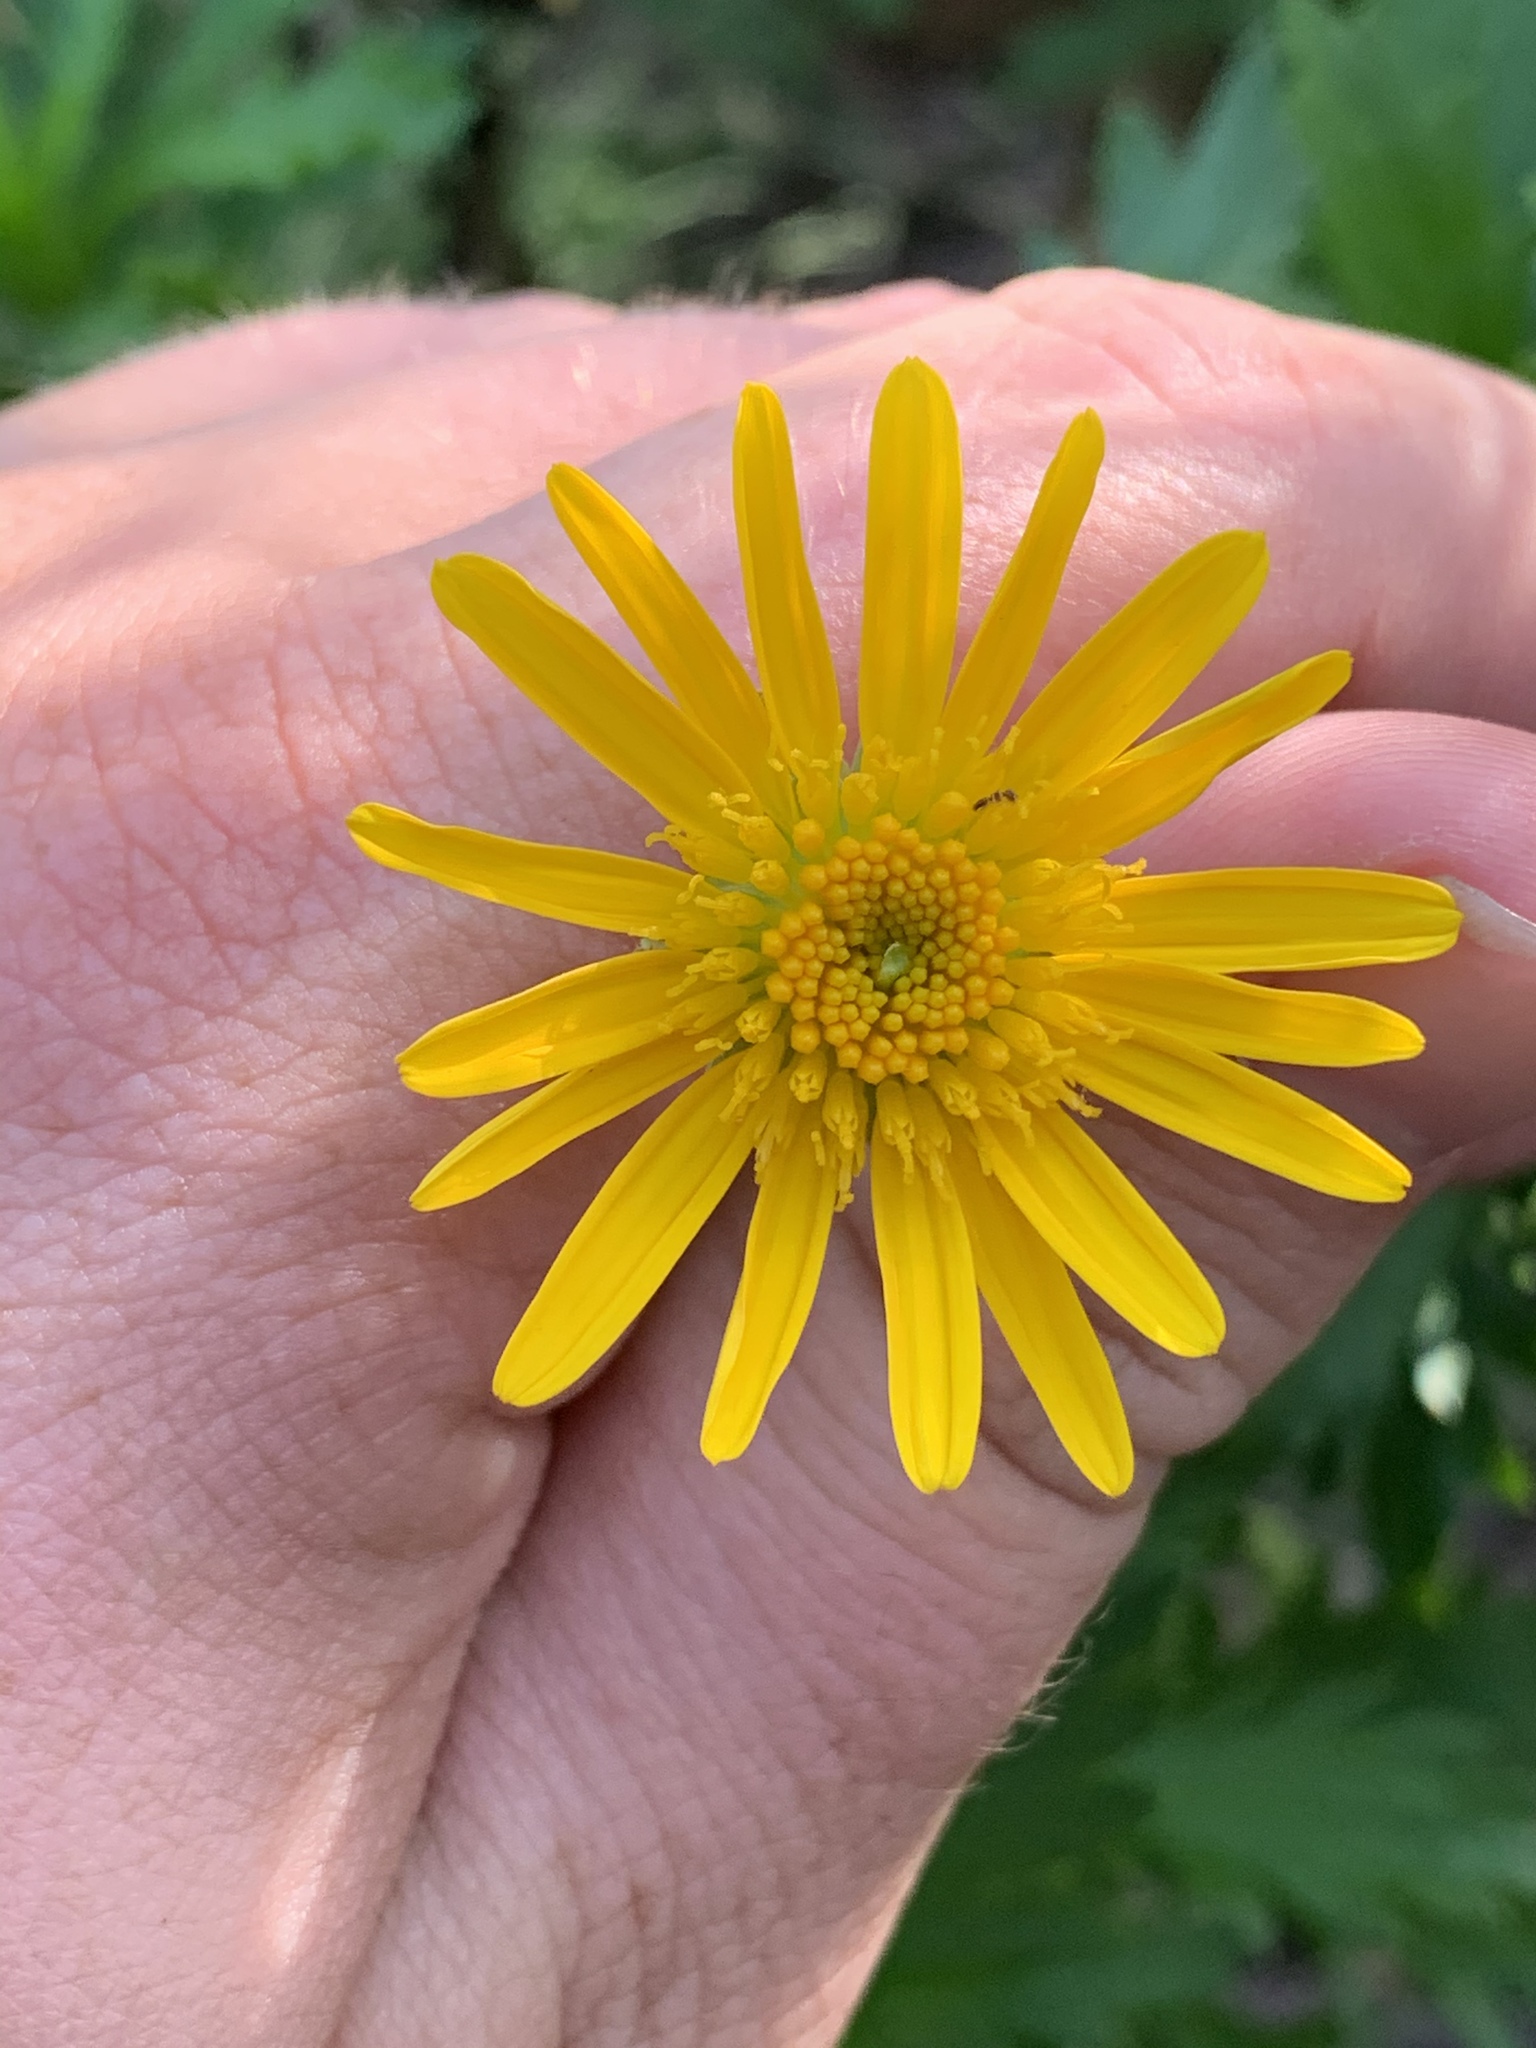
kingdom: Plantae
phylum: Tracheophyta
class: Magnoliopsida
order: Asterales
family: Asteraceae
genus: Euryops
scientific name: Euryops chrysanthemoides
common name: Bull's eye
